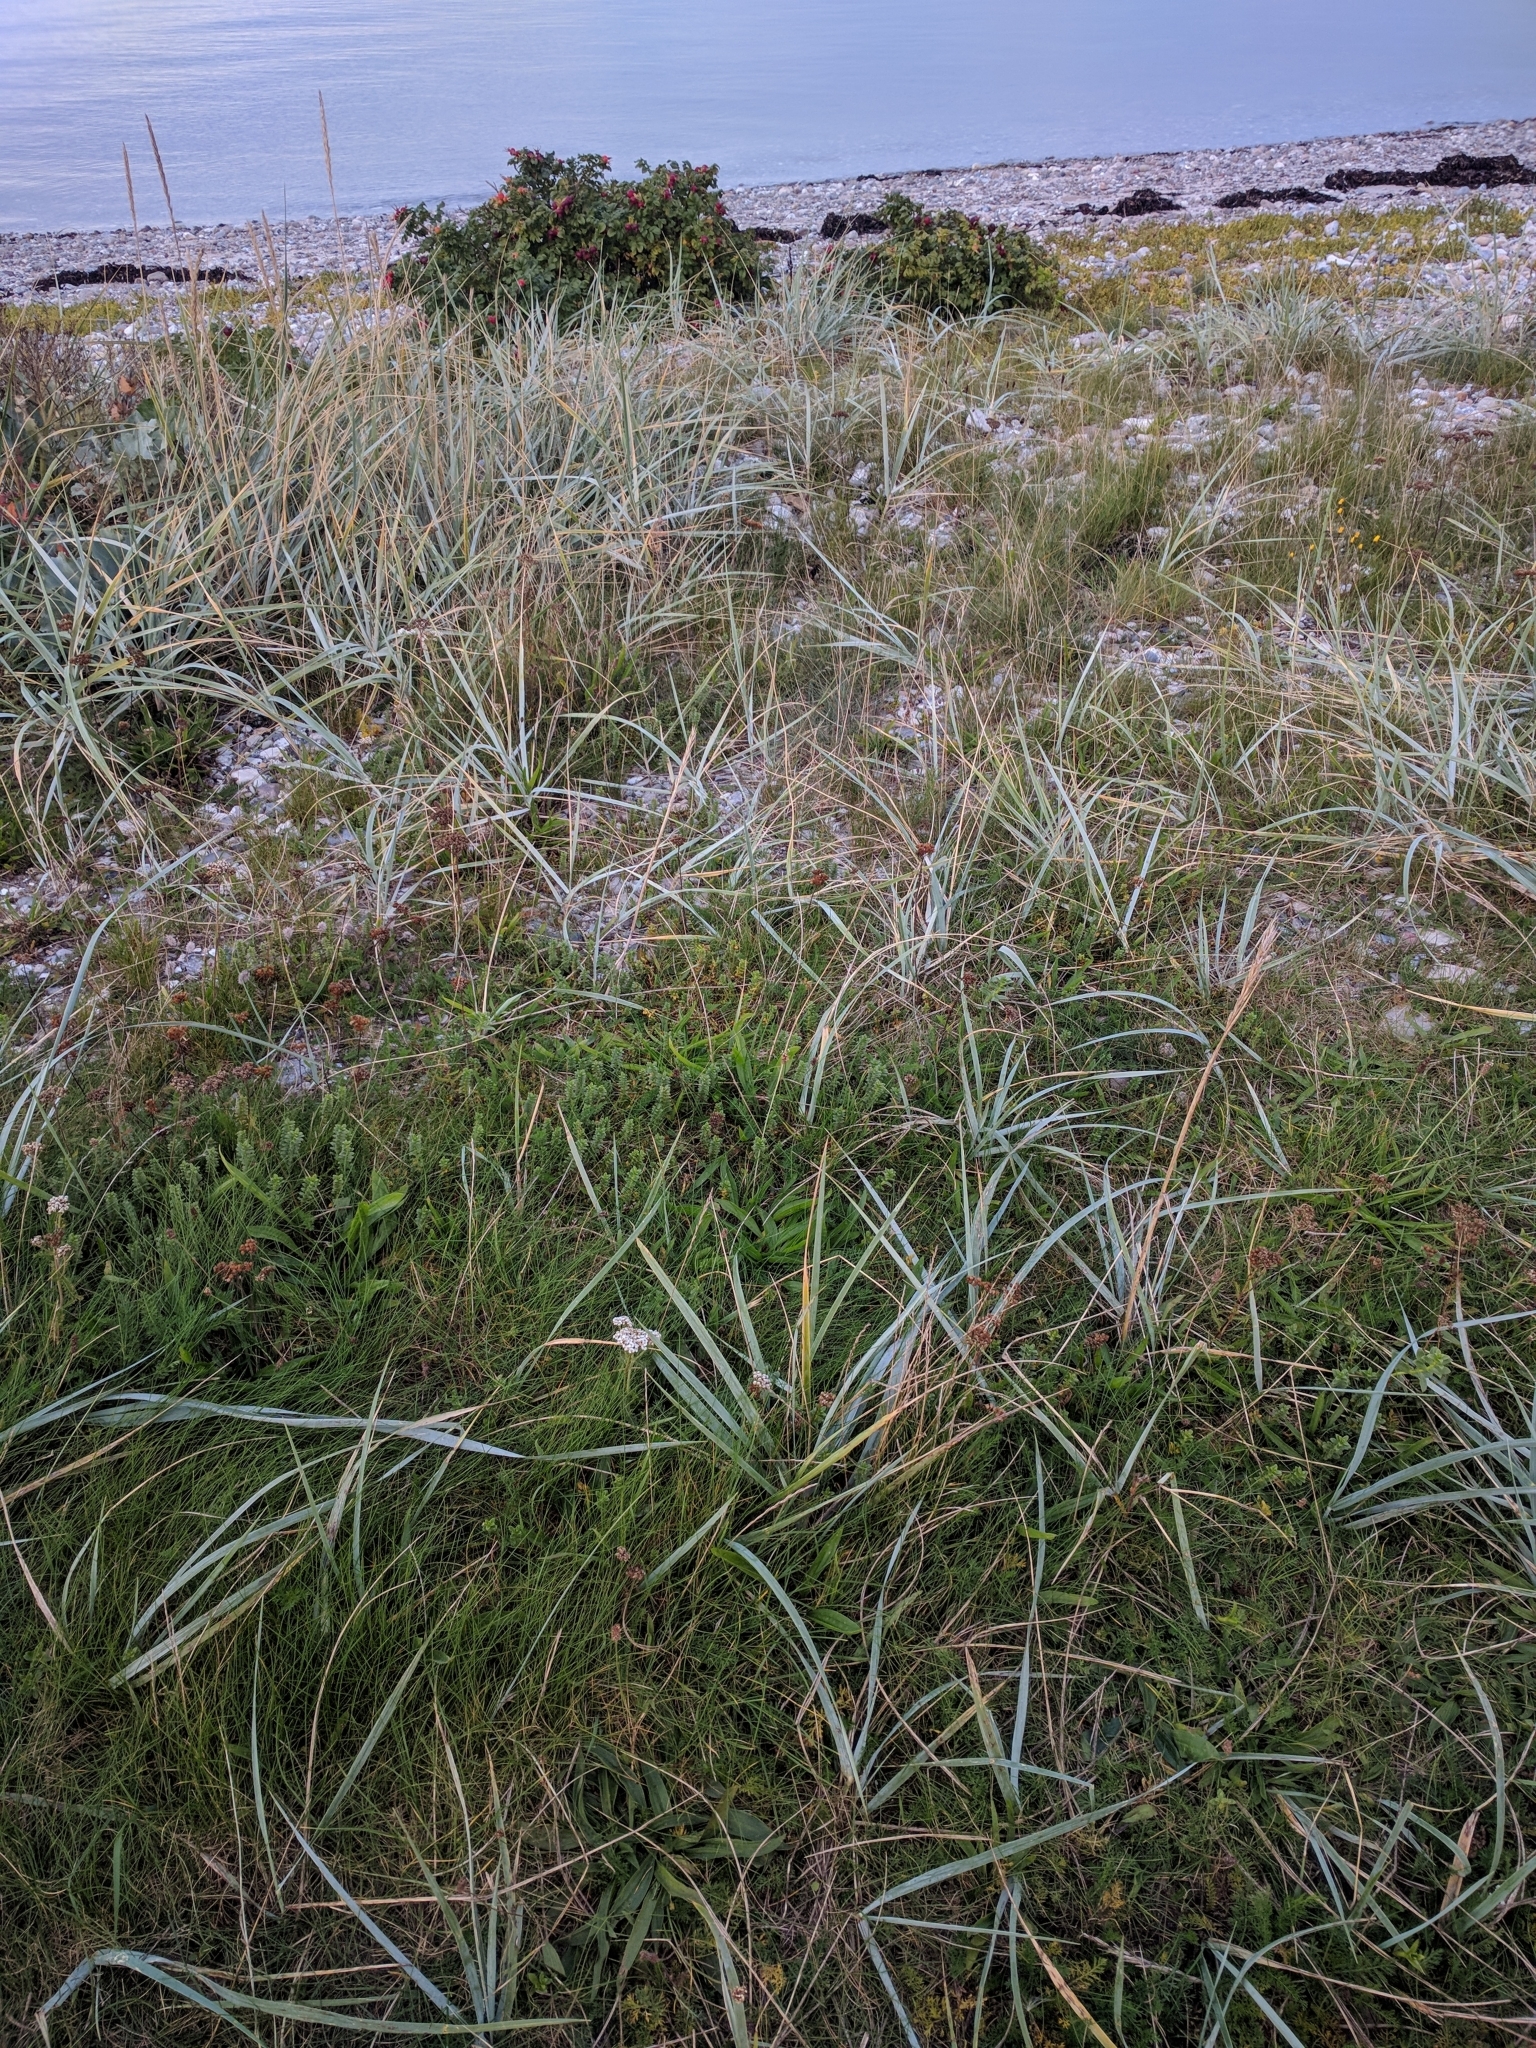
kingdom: Plantae
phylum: Tracheophyta
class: Liliopsida
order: Poales
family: Poaceae
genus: Leymus
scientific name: Leymus arenarius
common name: Lyme-grass
